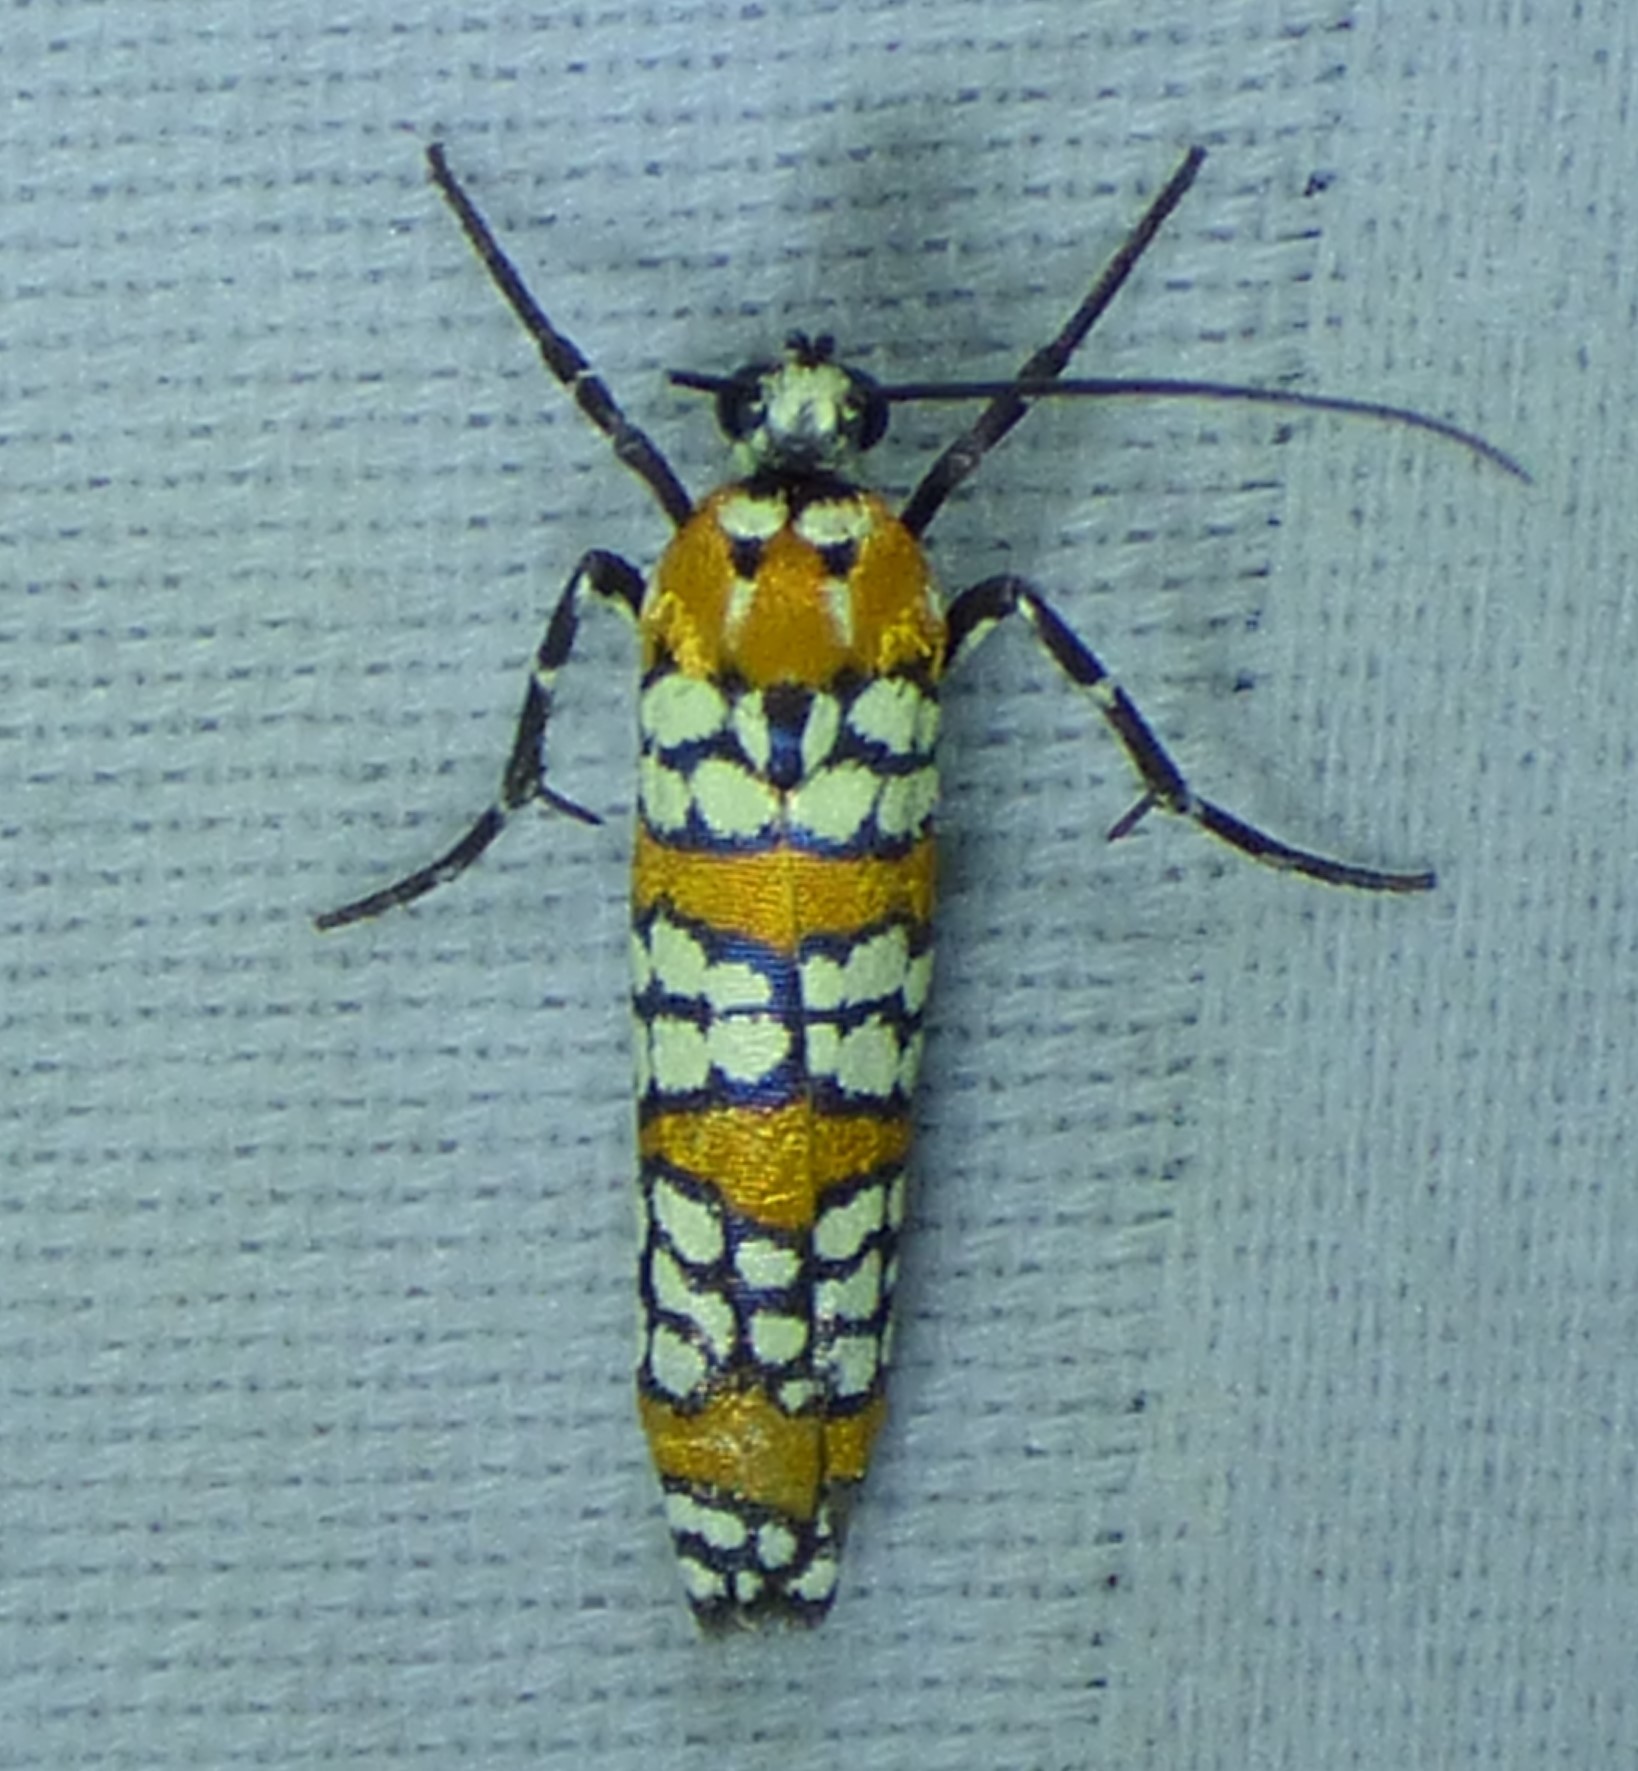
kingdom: Animalia
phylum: Arthropoda
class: Insecta
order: Lepidoptera
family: Attevidae
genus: Atteva
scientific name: Atteva punctella
